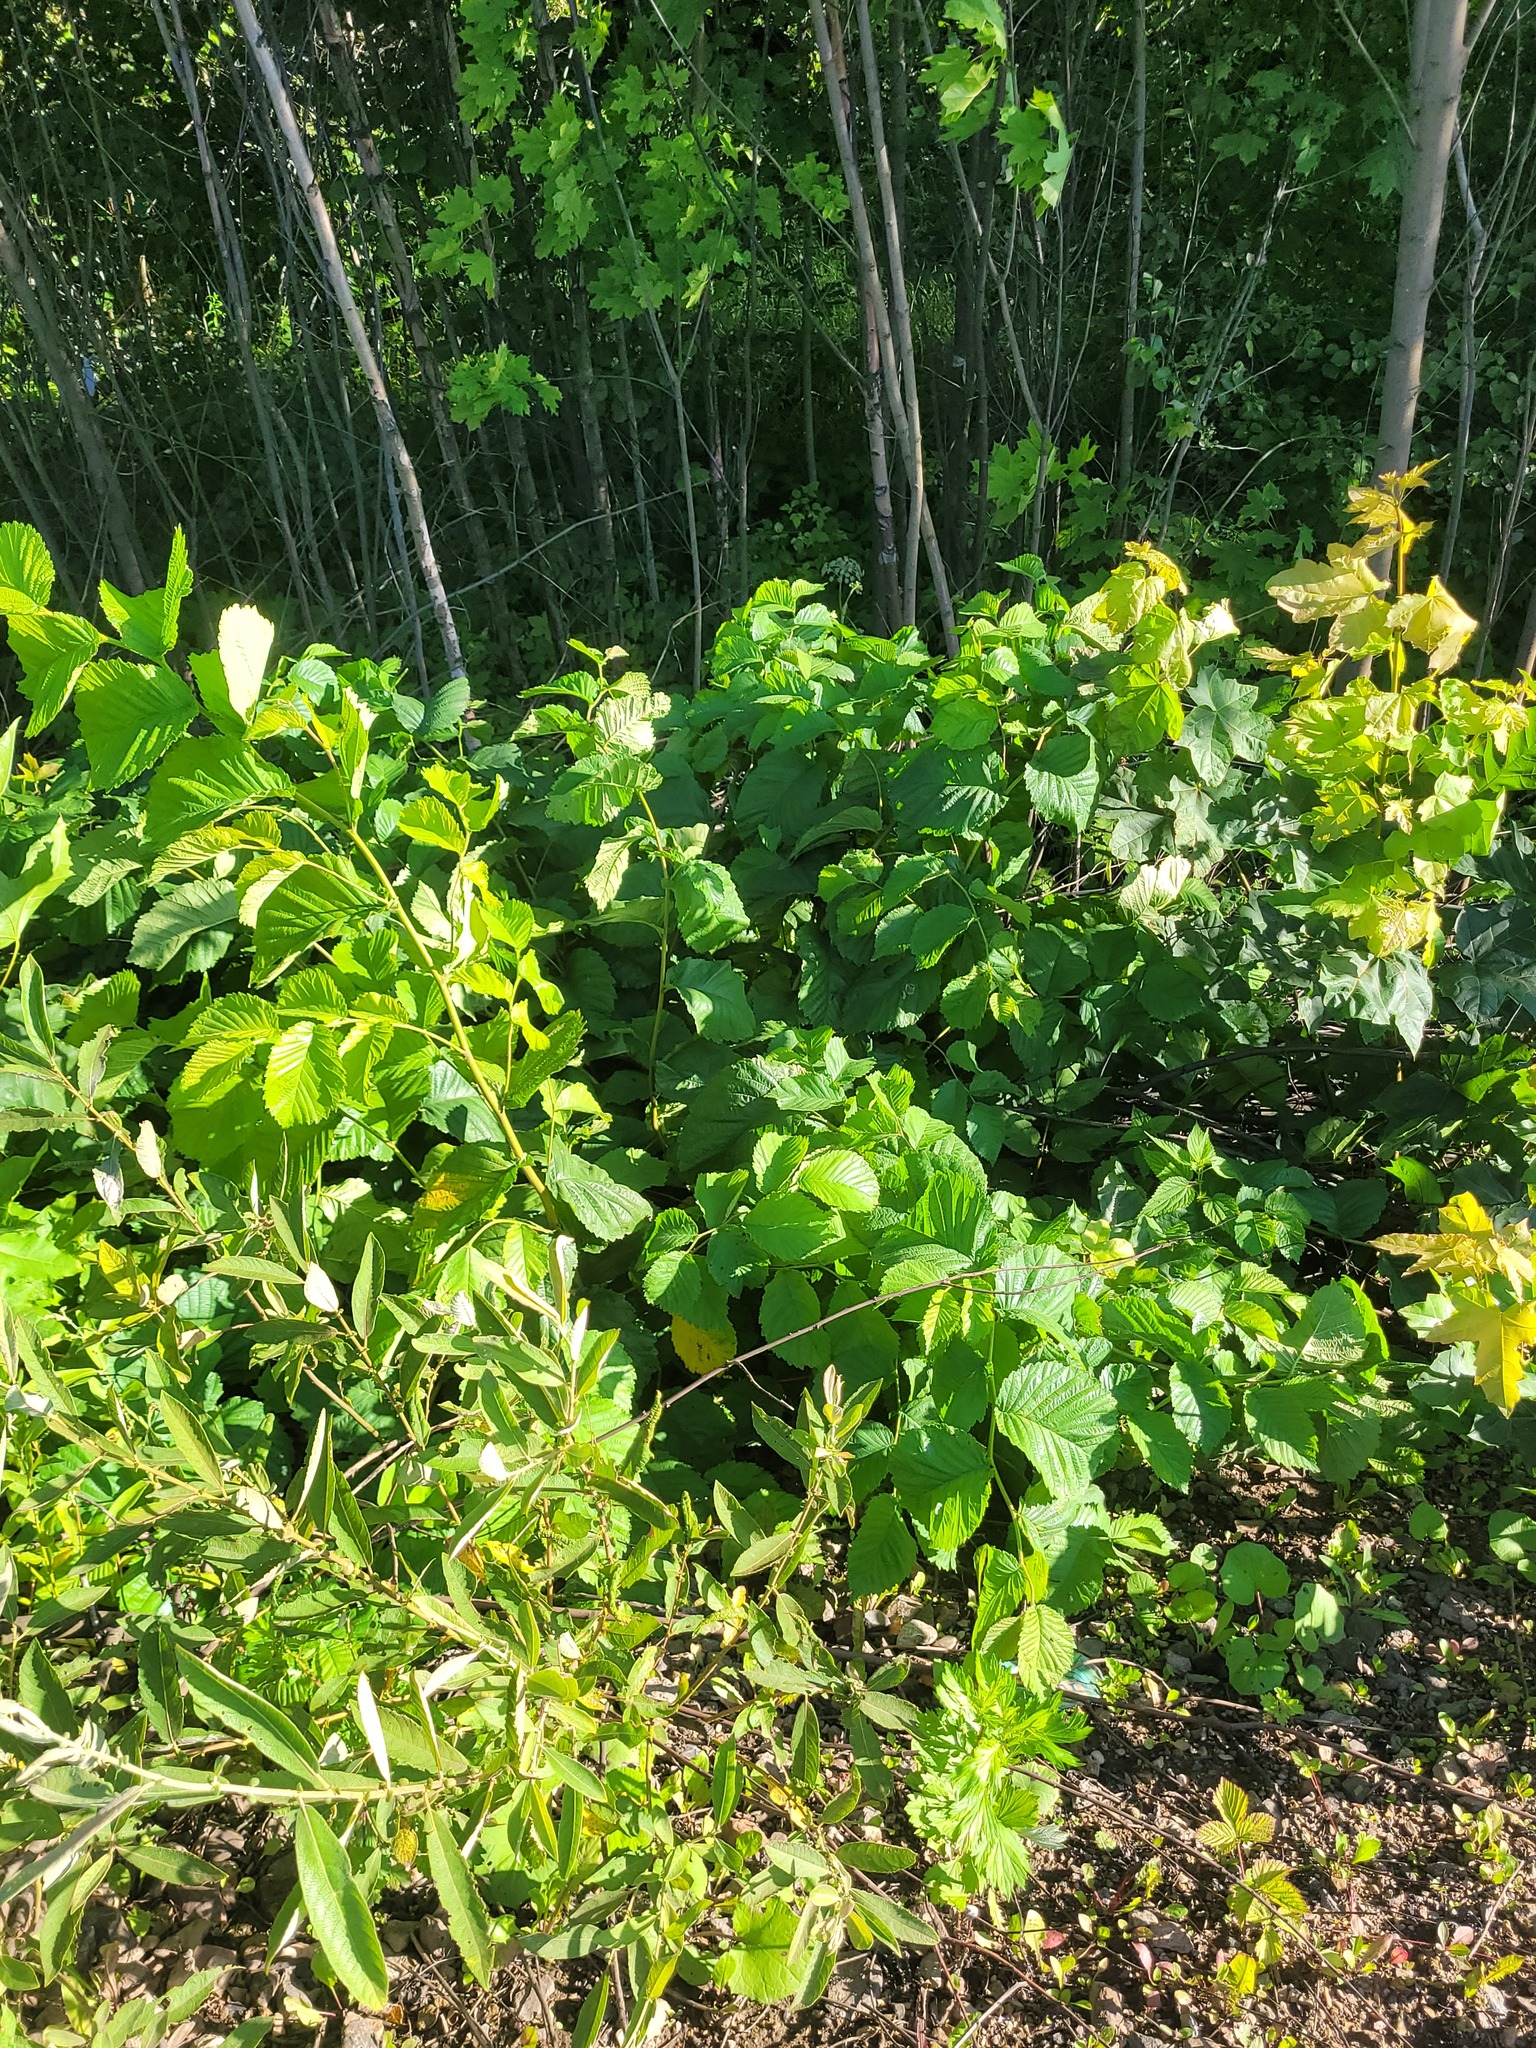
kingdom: Plantae
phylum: Tracheophyta
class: Magnoliopsida
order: Rosales
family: Ulmaceae
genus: Ulmus
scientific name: Ulmus glabra
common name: Wych elm
